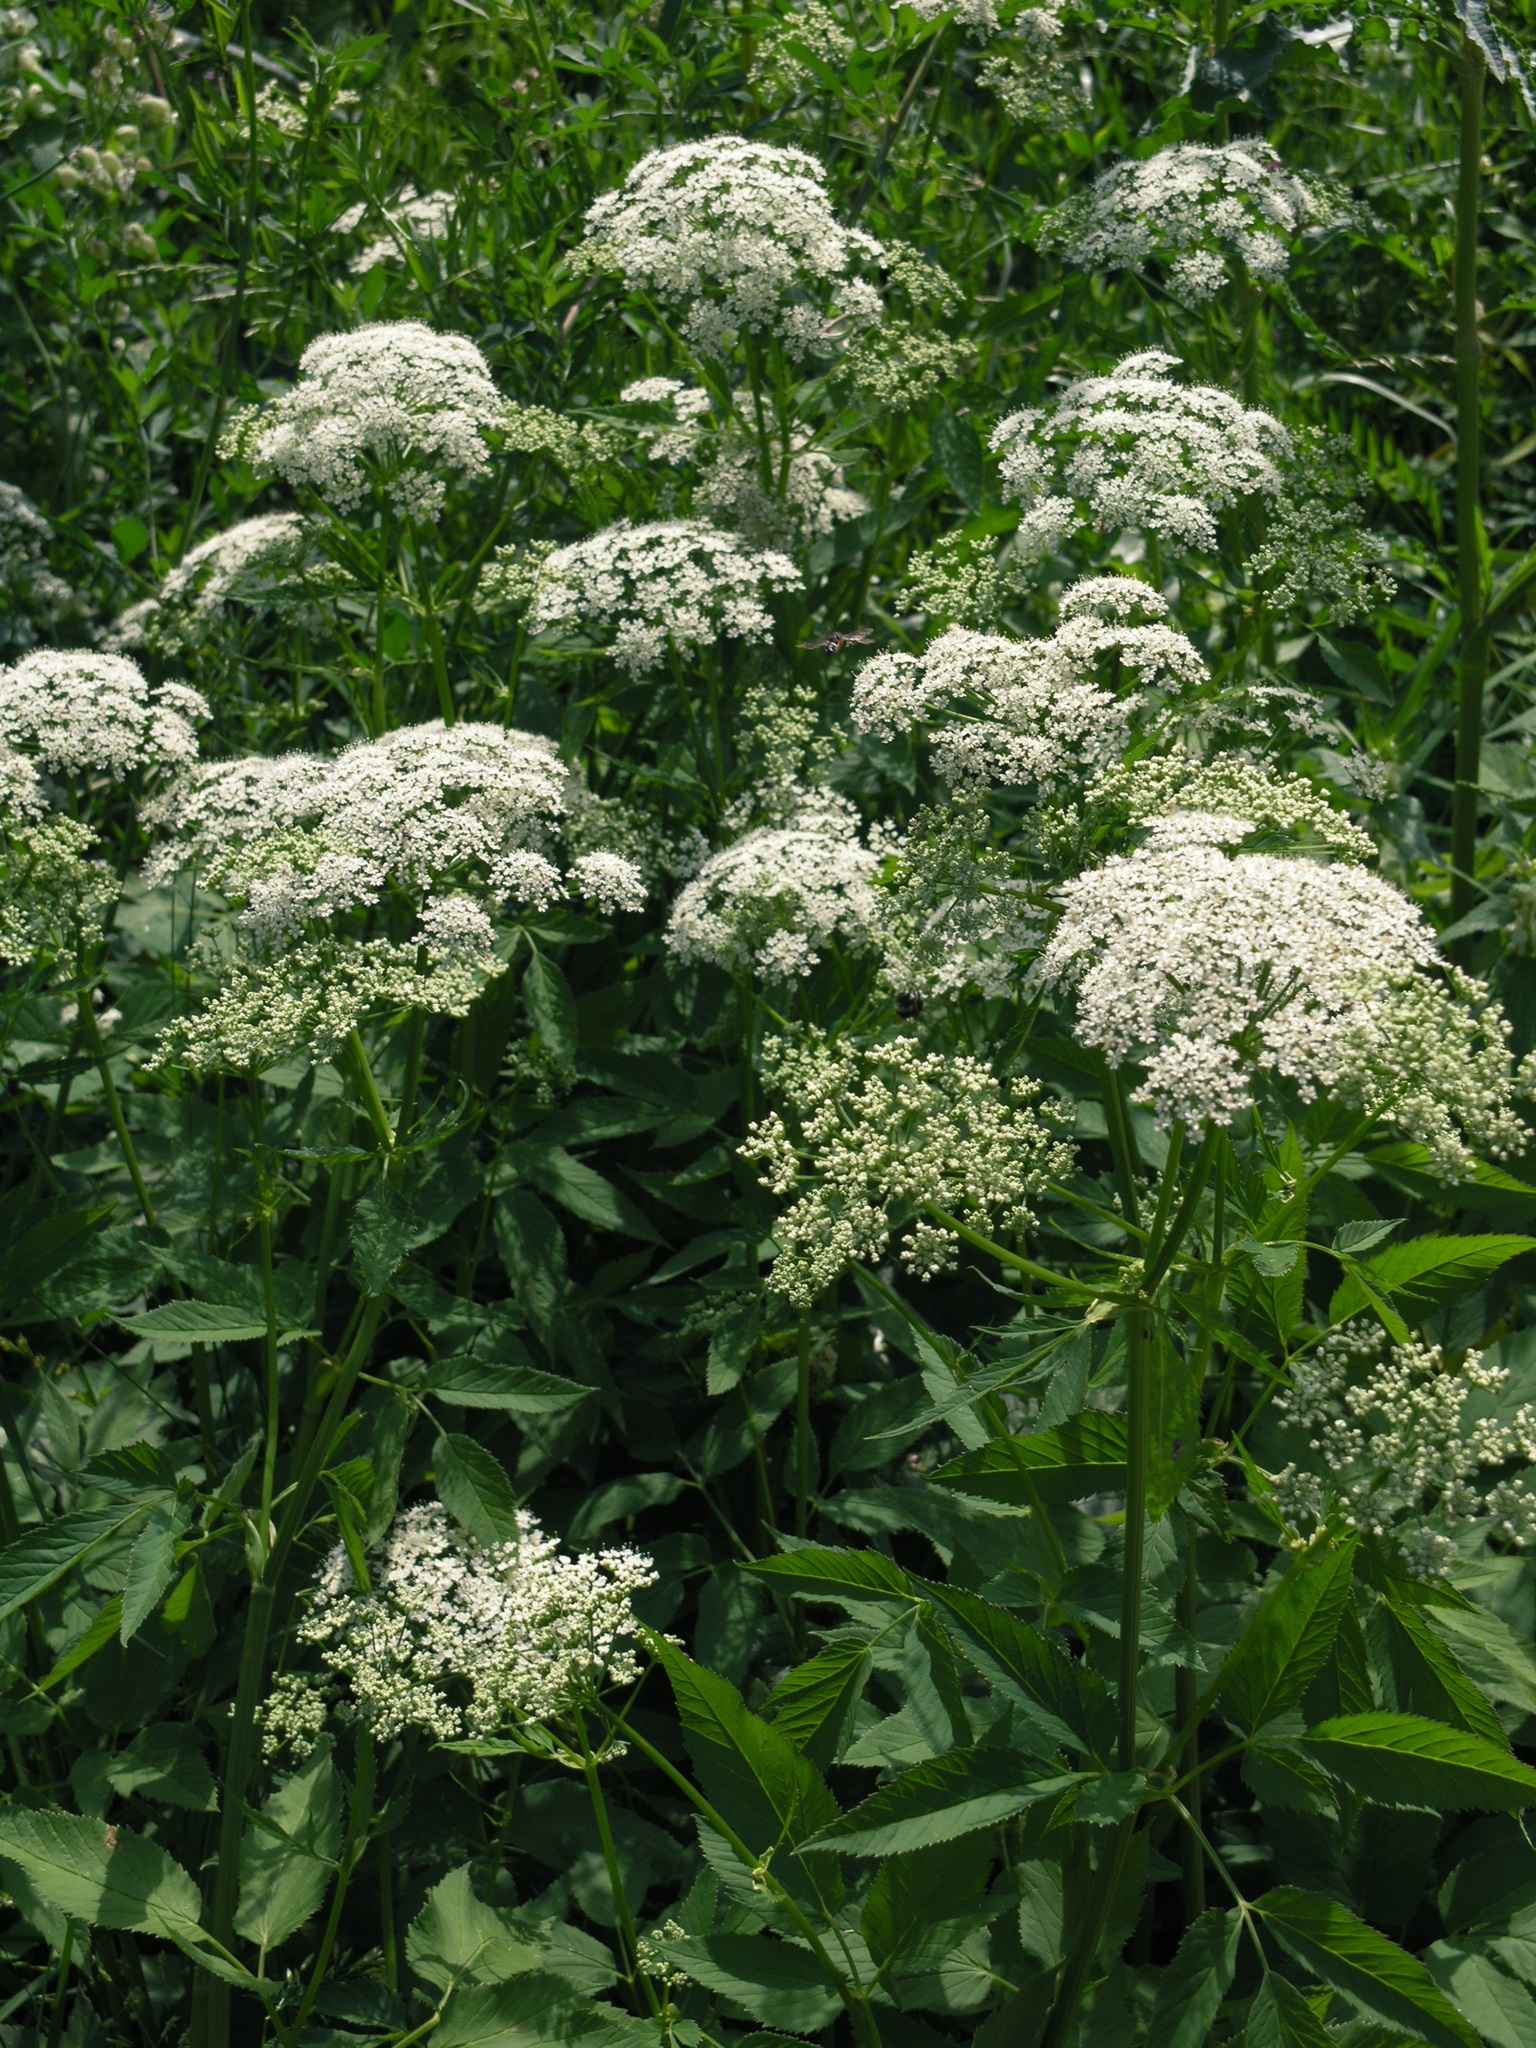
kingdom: Plantae
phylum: Tracheophyta
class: Magnoliopsida
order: Apiales
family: Apiaceae
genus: Aegopodium
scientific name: Aegopodium podagraria
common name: Ground-elder
